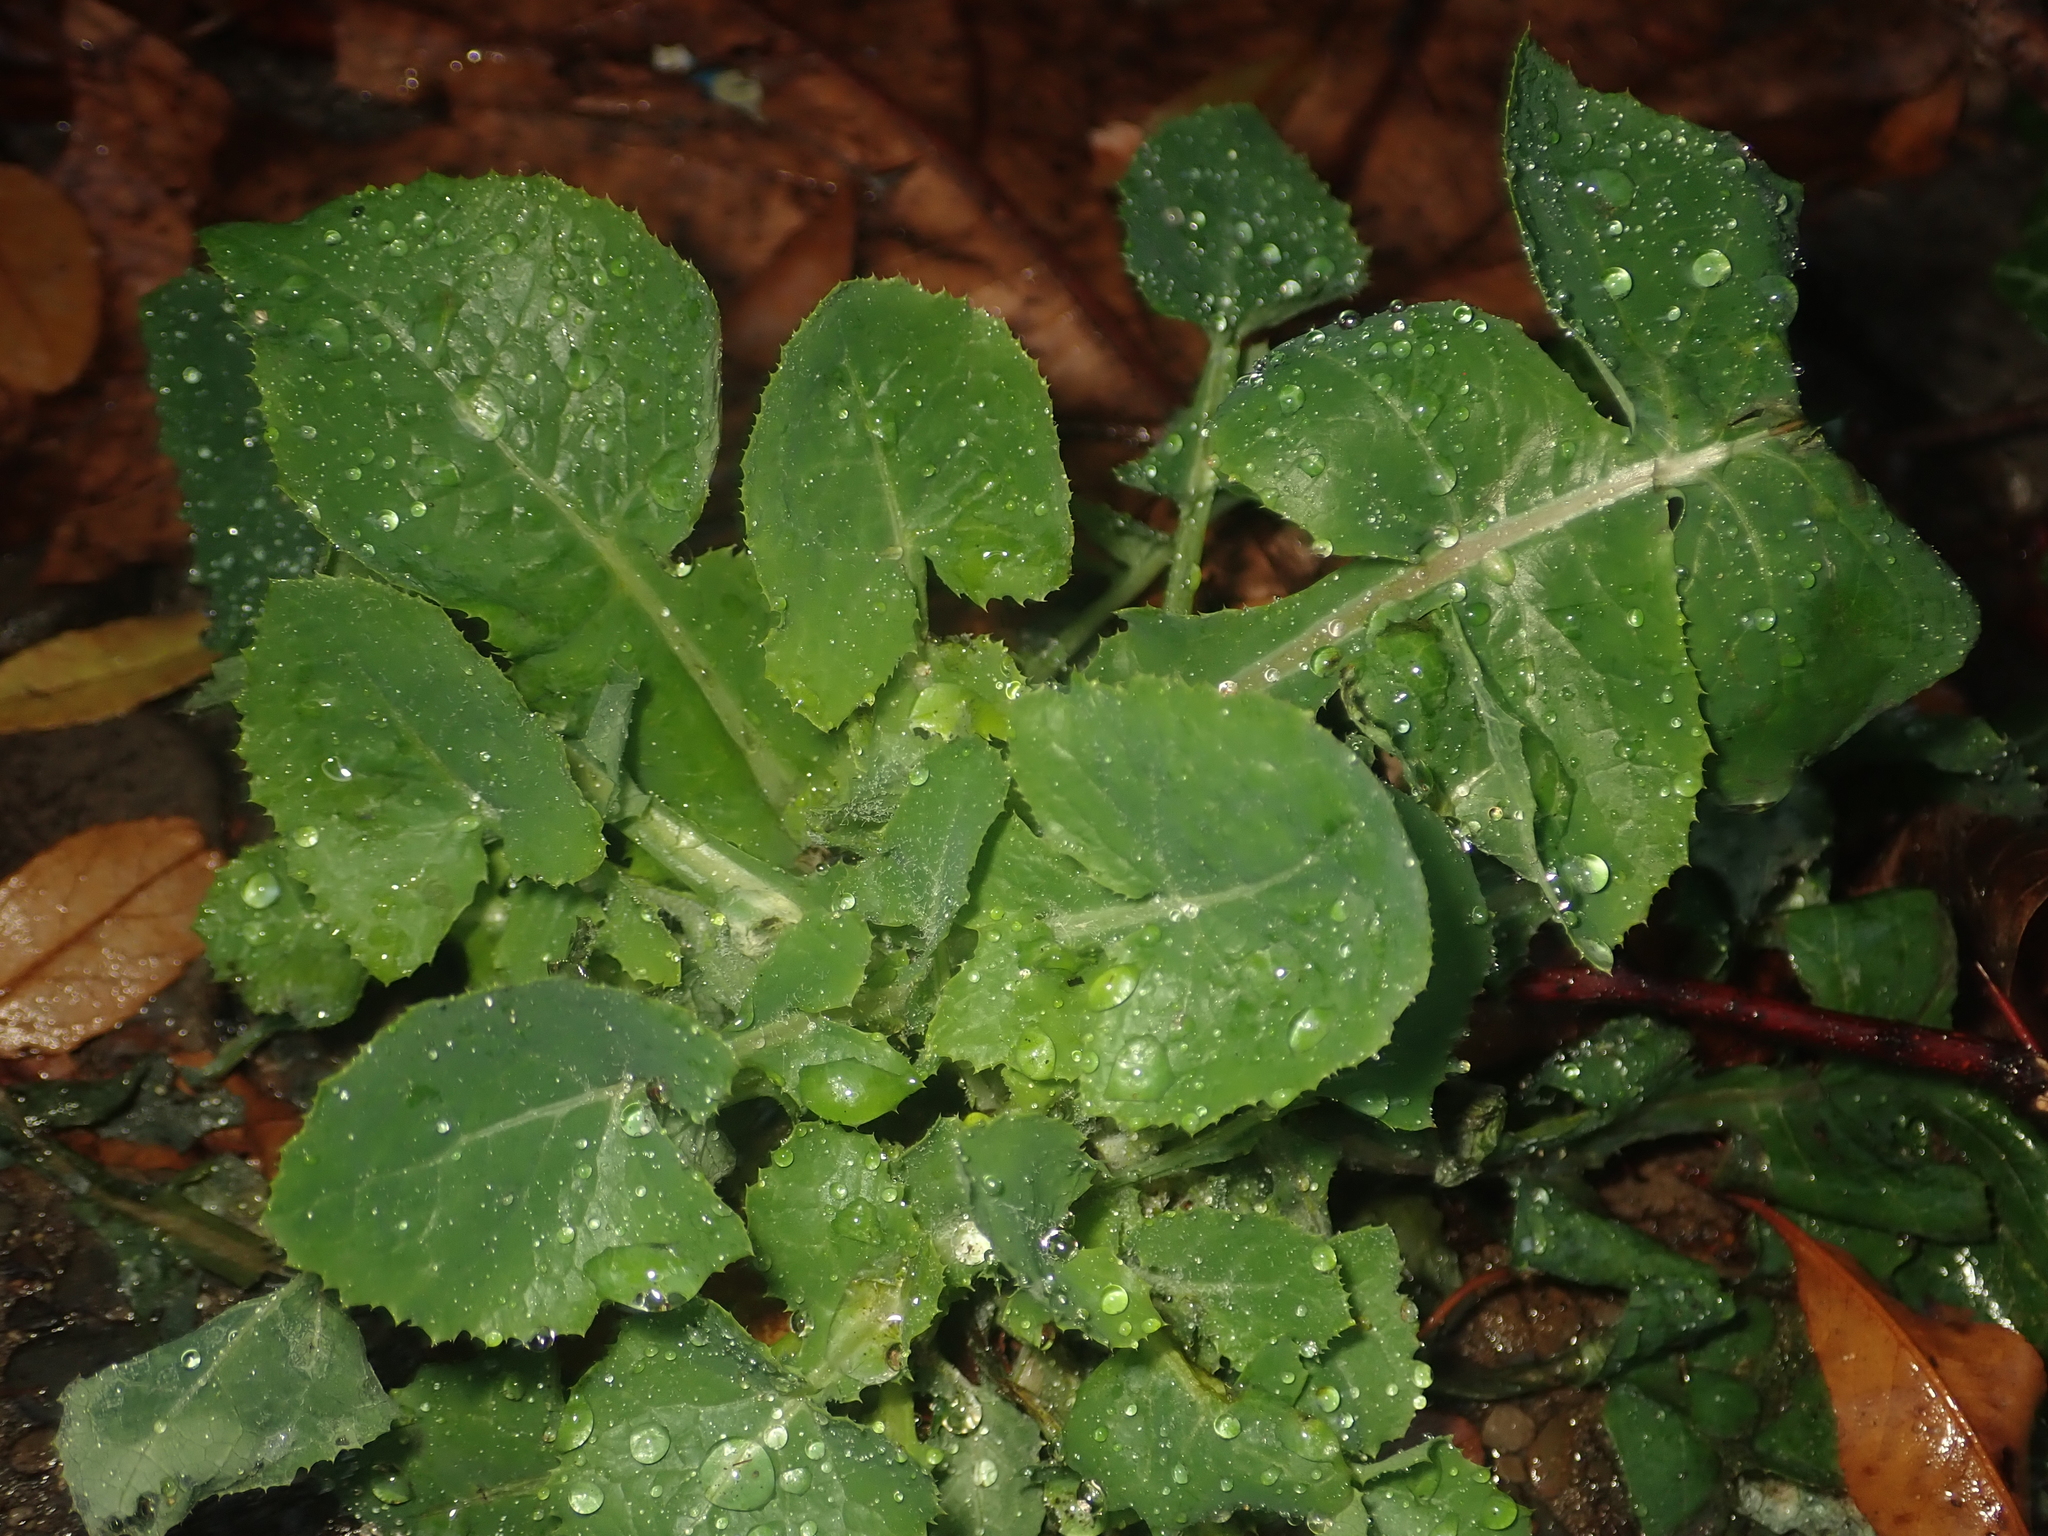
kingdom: Plantae
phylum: Tracheophyta
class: Magnoliopsida
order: Asterales
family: Asteraceae
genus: Sonchus
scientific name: Sonchus oleraceus
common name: Common sowthistle
